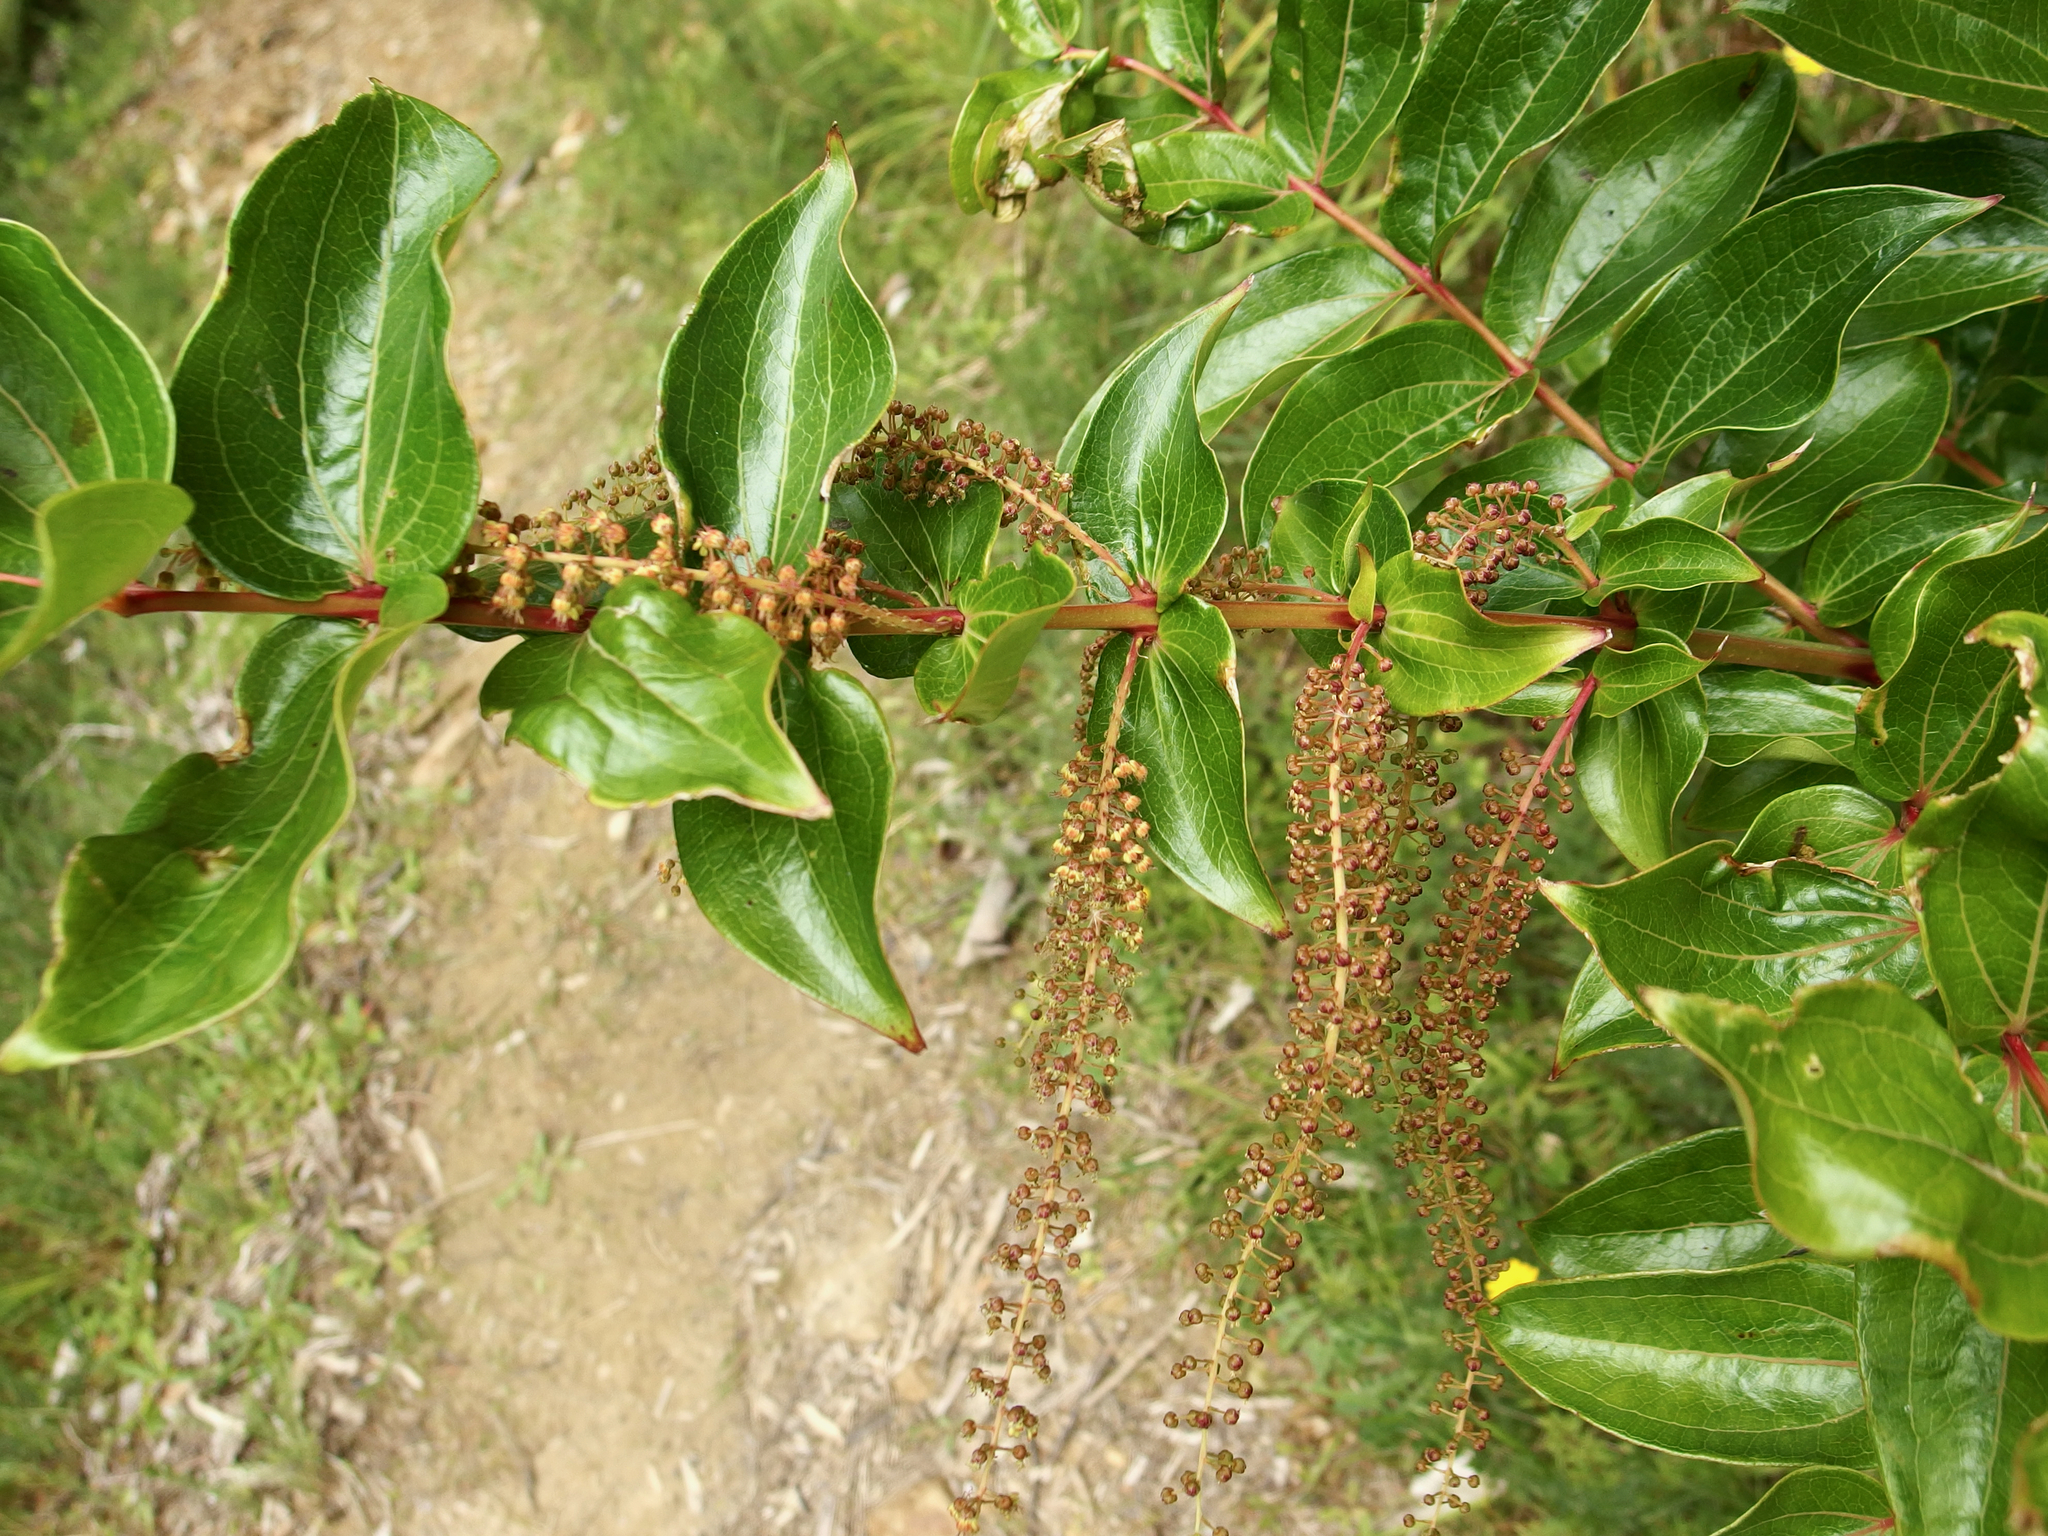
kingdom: Plantae
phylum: Tracheophyta
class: Magnoliopsida
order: Cucurbitales
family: Coriariaceae
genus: Coriaria
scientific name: Coriaria arborea
